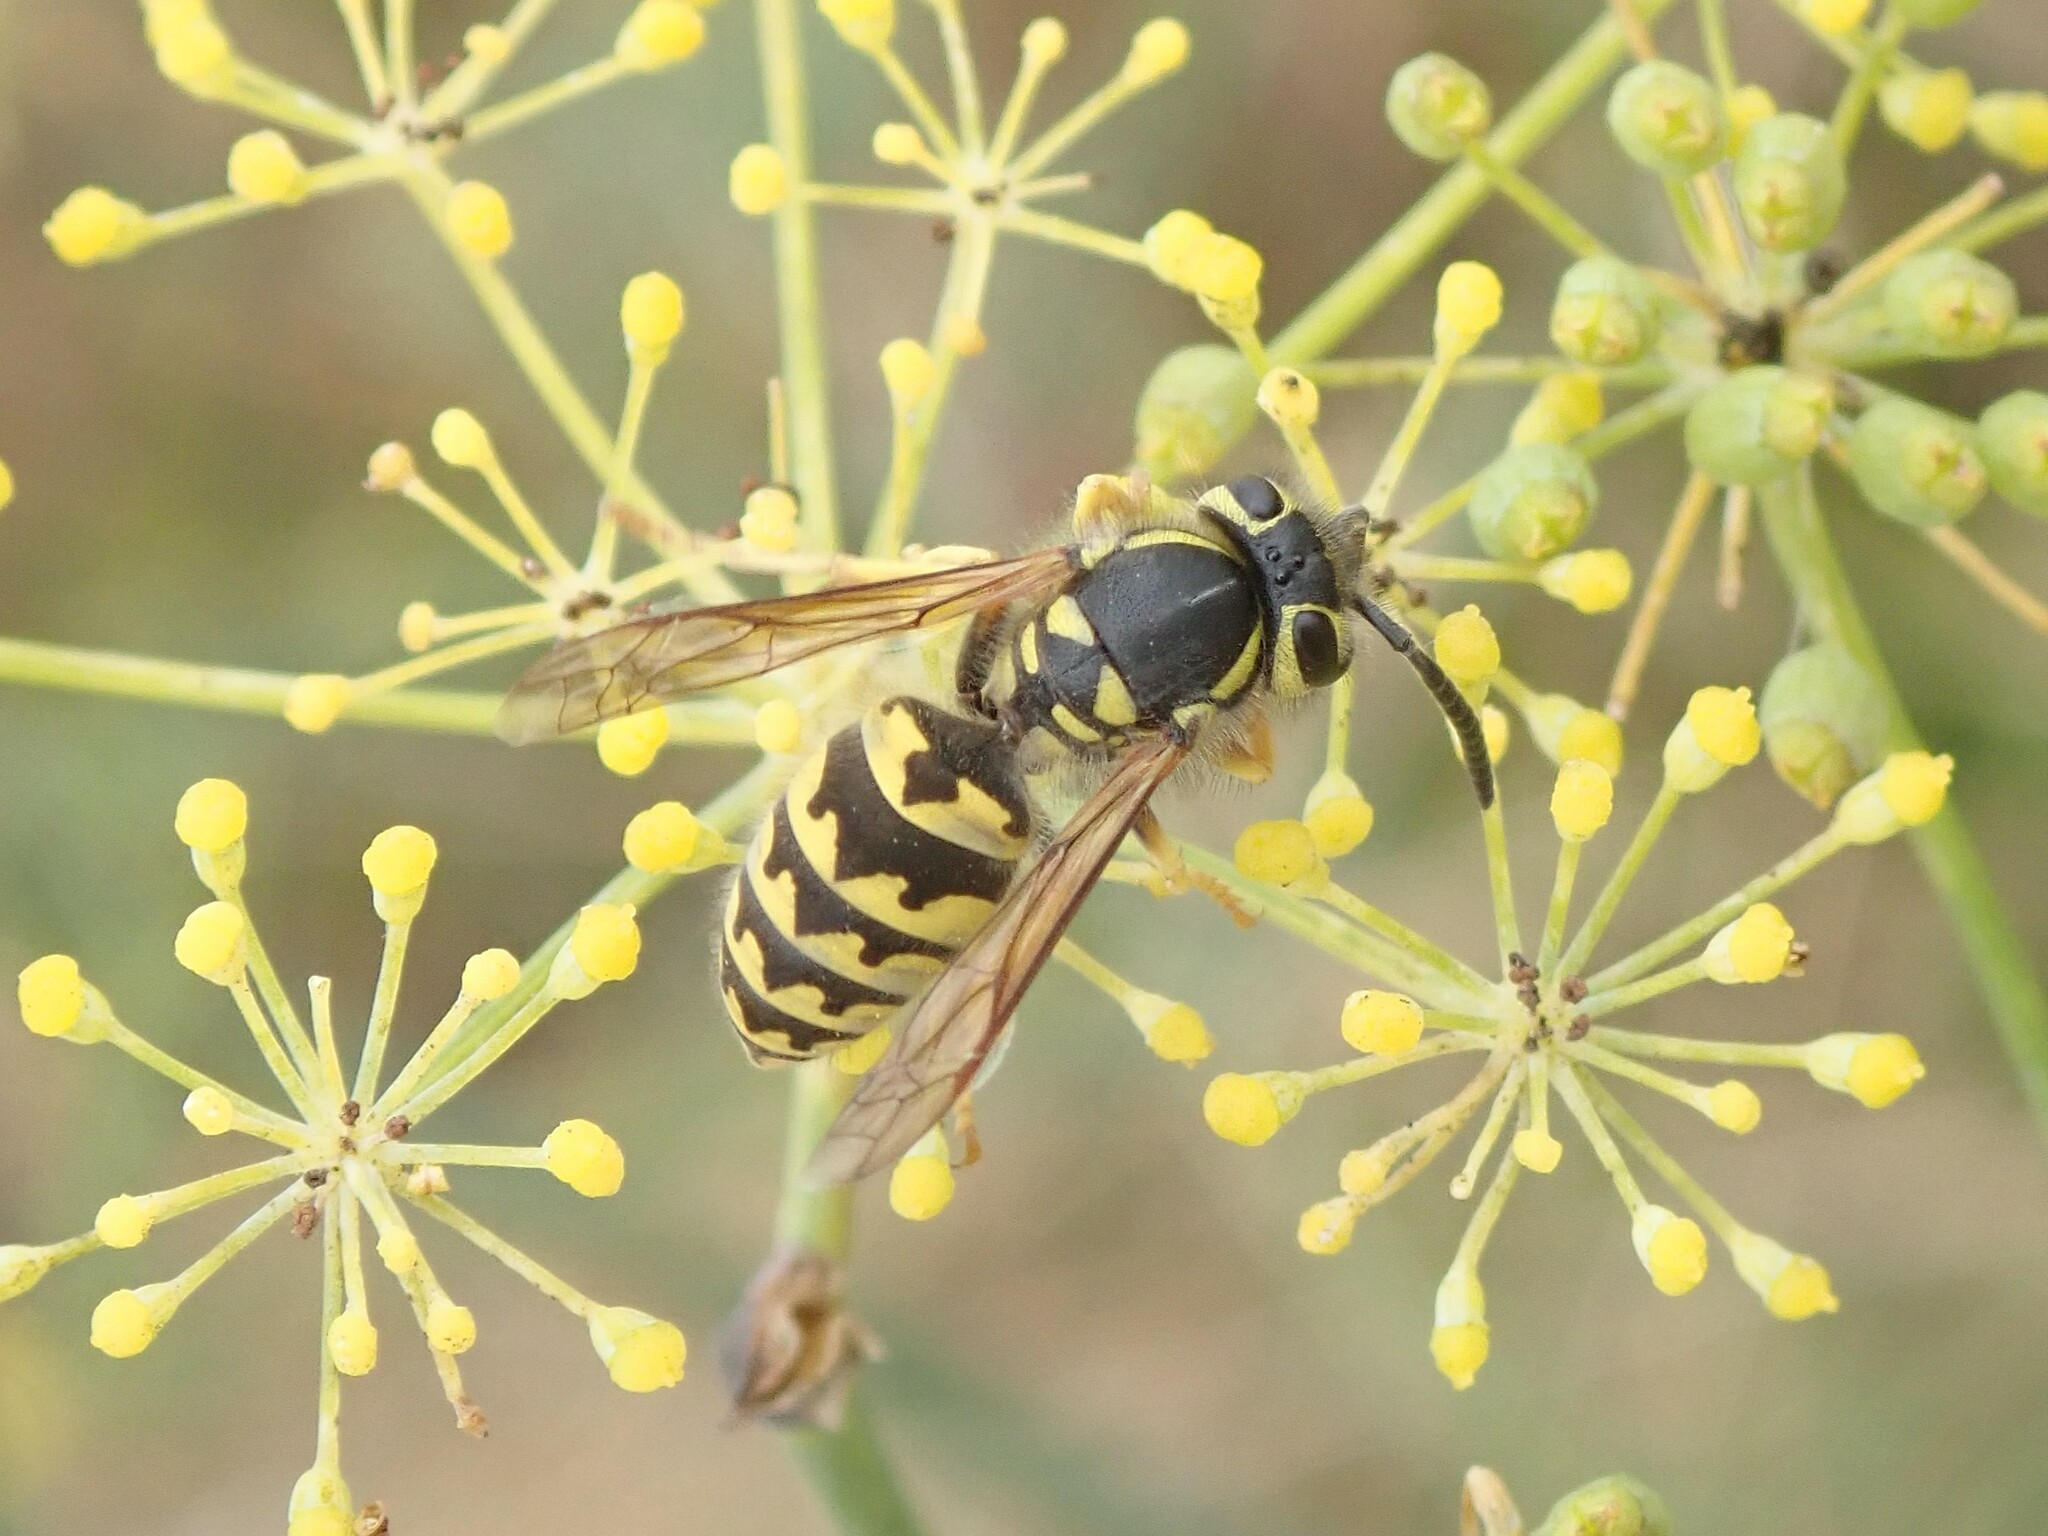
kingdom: Animalia
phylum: Arthropoda
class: Insecta
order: Hymenoptera
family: Vespidae
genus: Vespula
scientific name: Vespula pensylvanica
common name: Western yellowjacket
